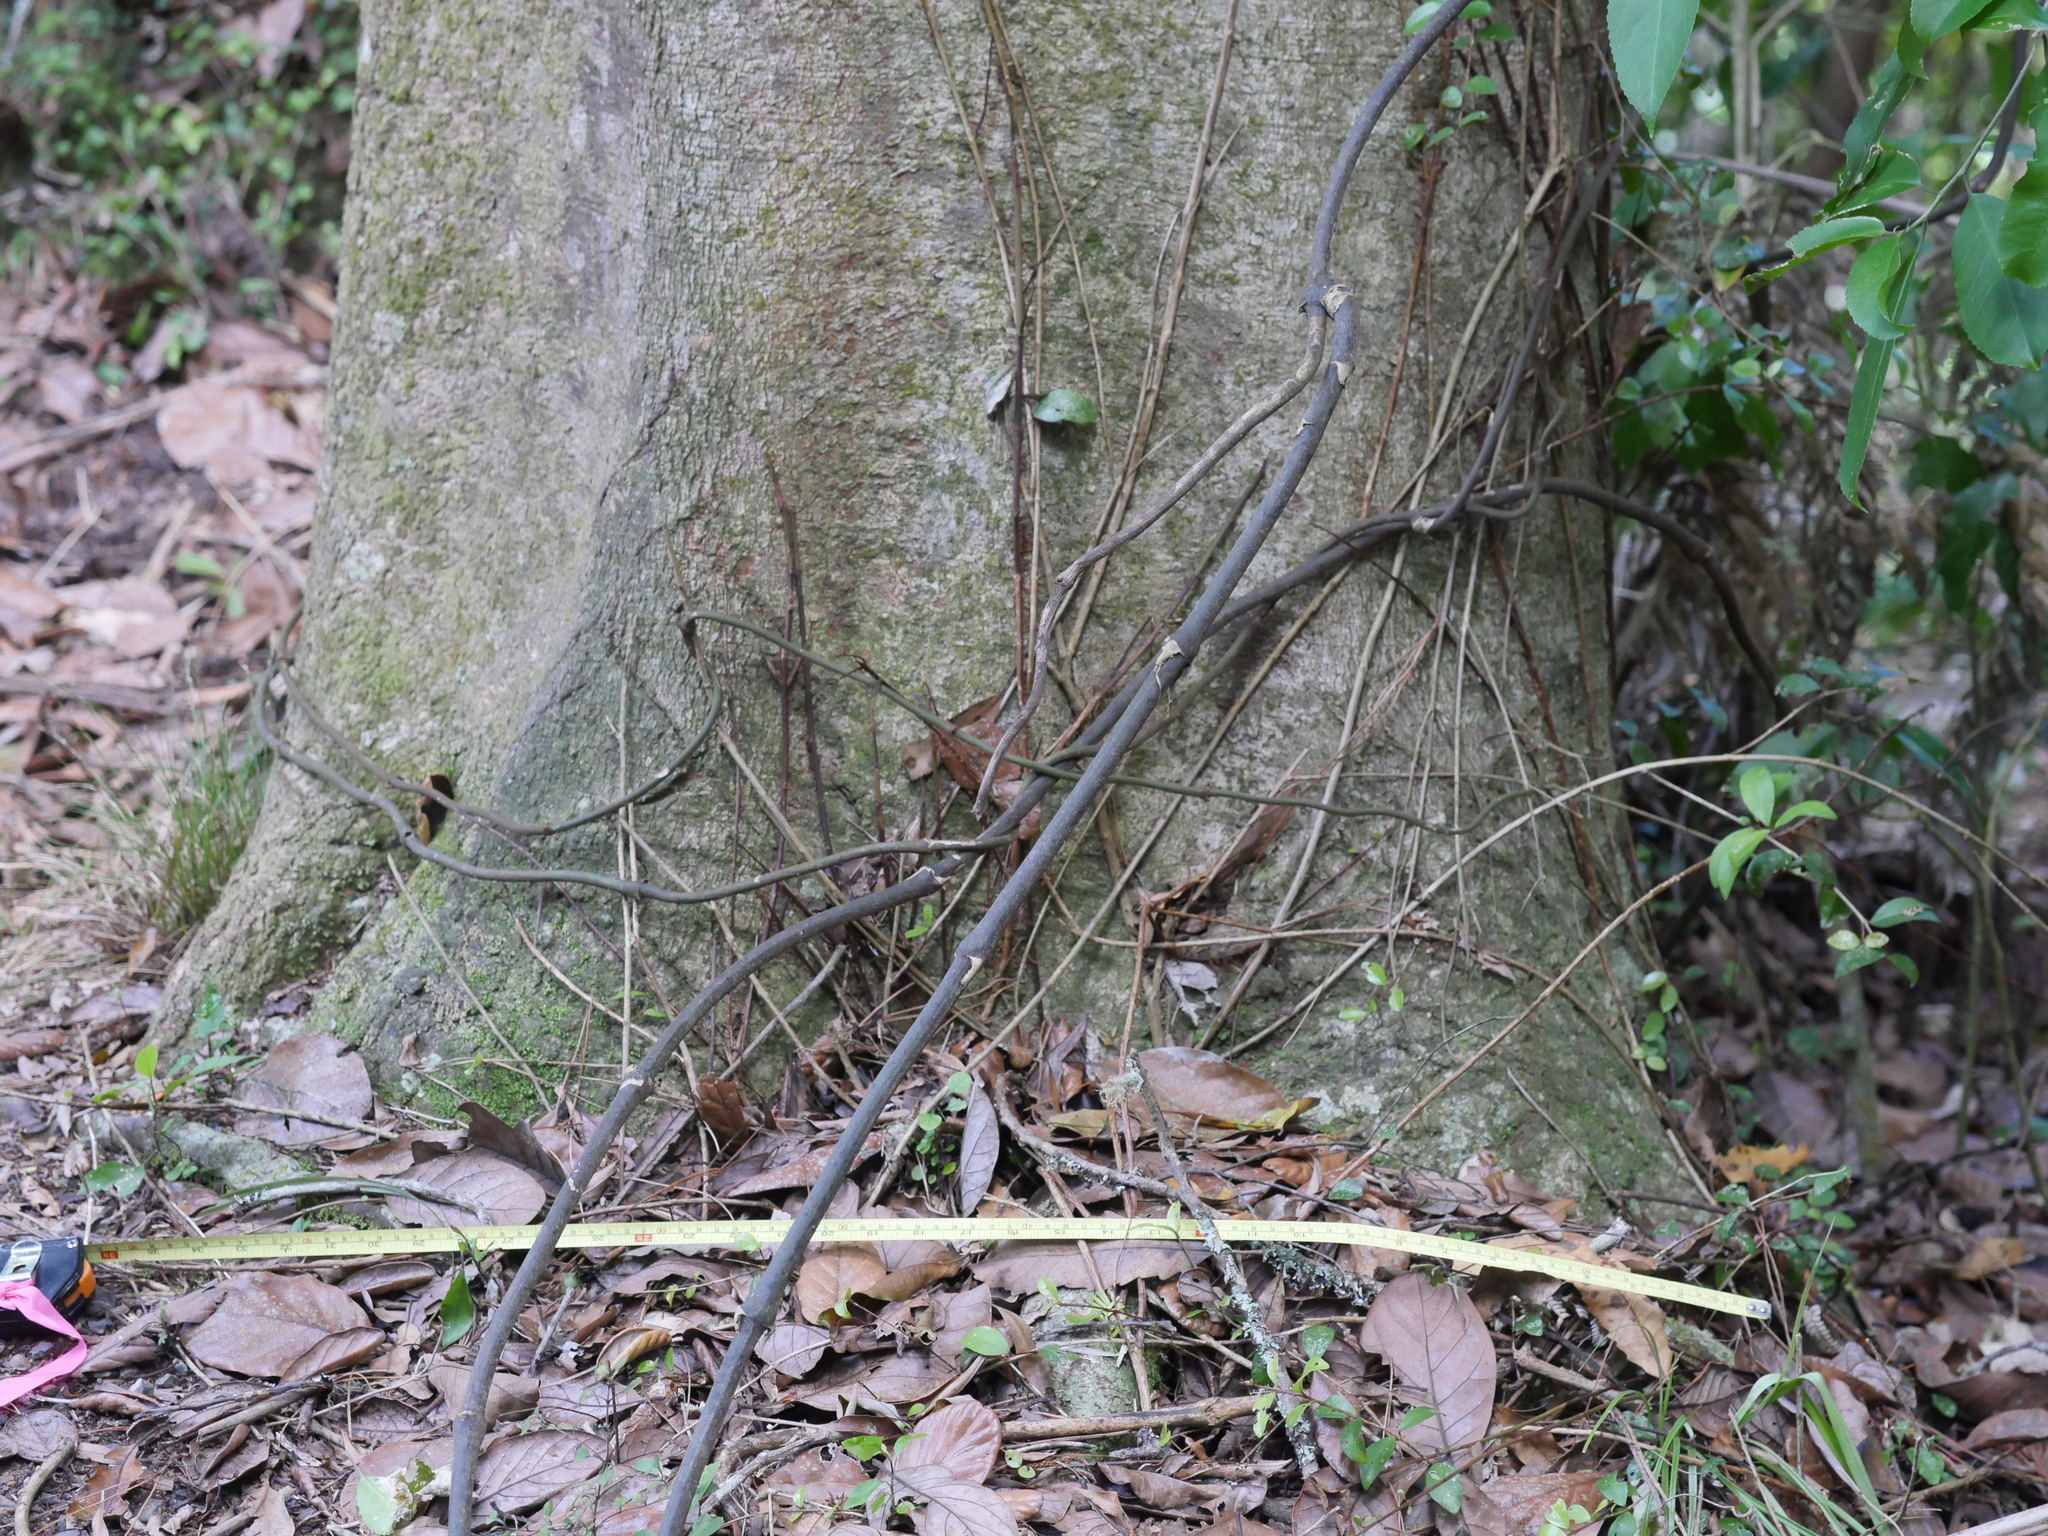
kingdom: Plantae
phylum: Tracheophyta
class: Magnoliopsida
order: Laurales
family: Lauraceae
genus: Beilschmiedia
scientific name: Beilschmiedia tarairi
